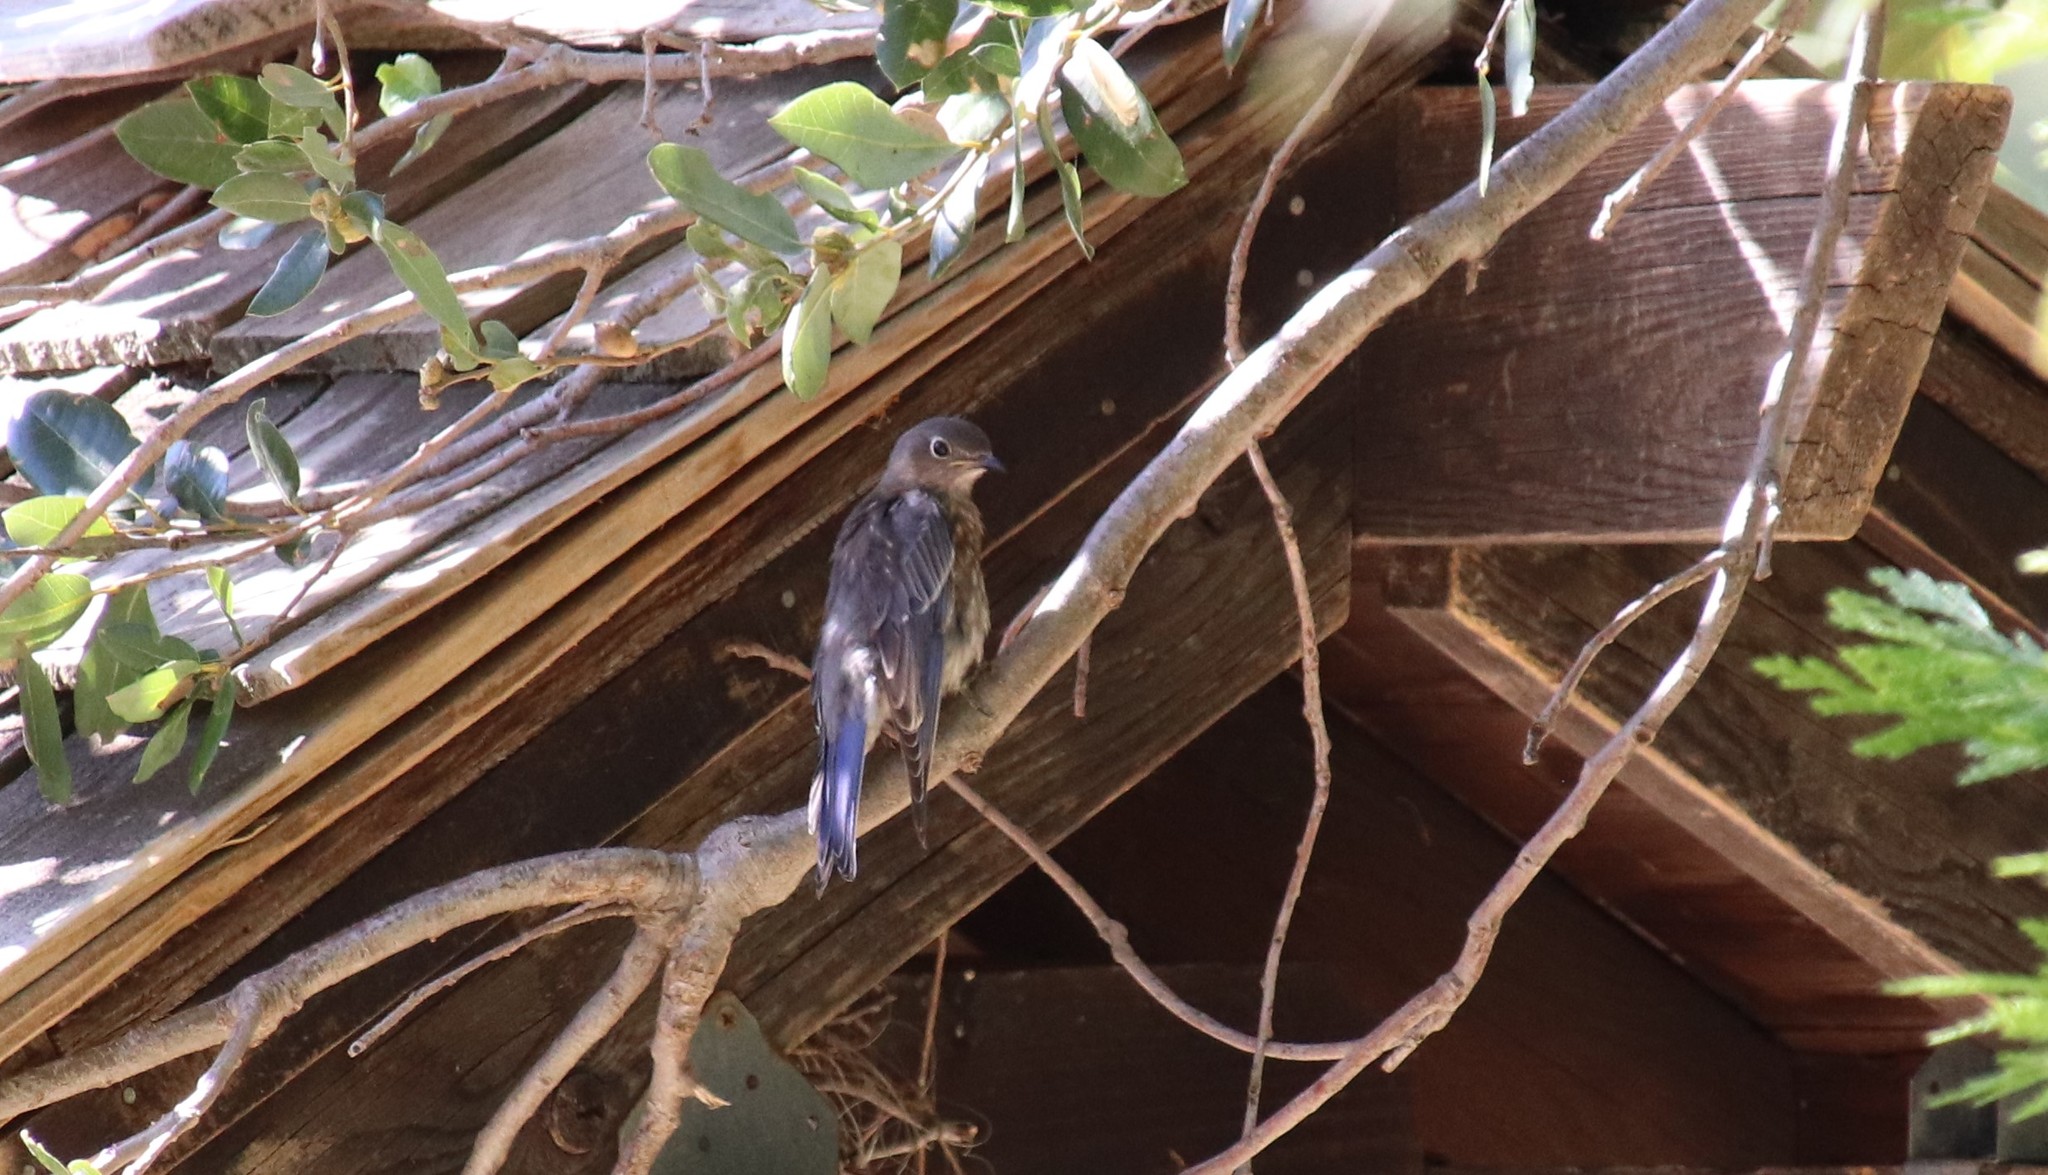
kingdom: Animalia
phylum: Chordata
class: Aves
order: Passeriformes
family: Turdidae
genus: Sialia
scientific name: Sialia mexicana
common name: Western bluebird
